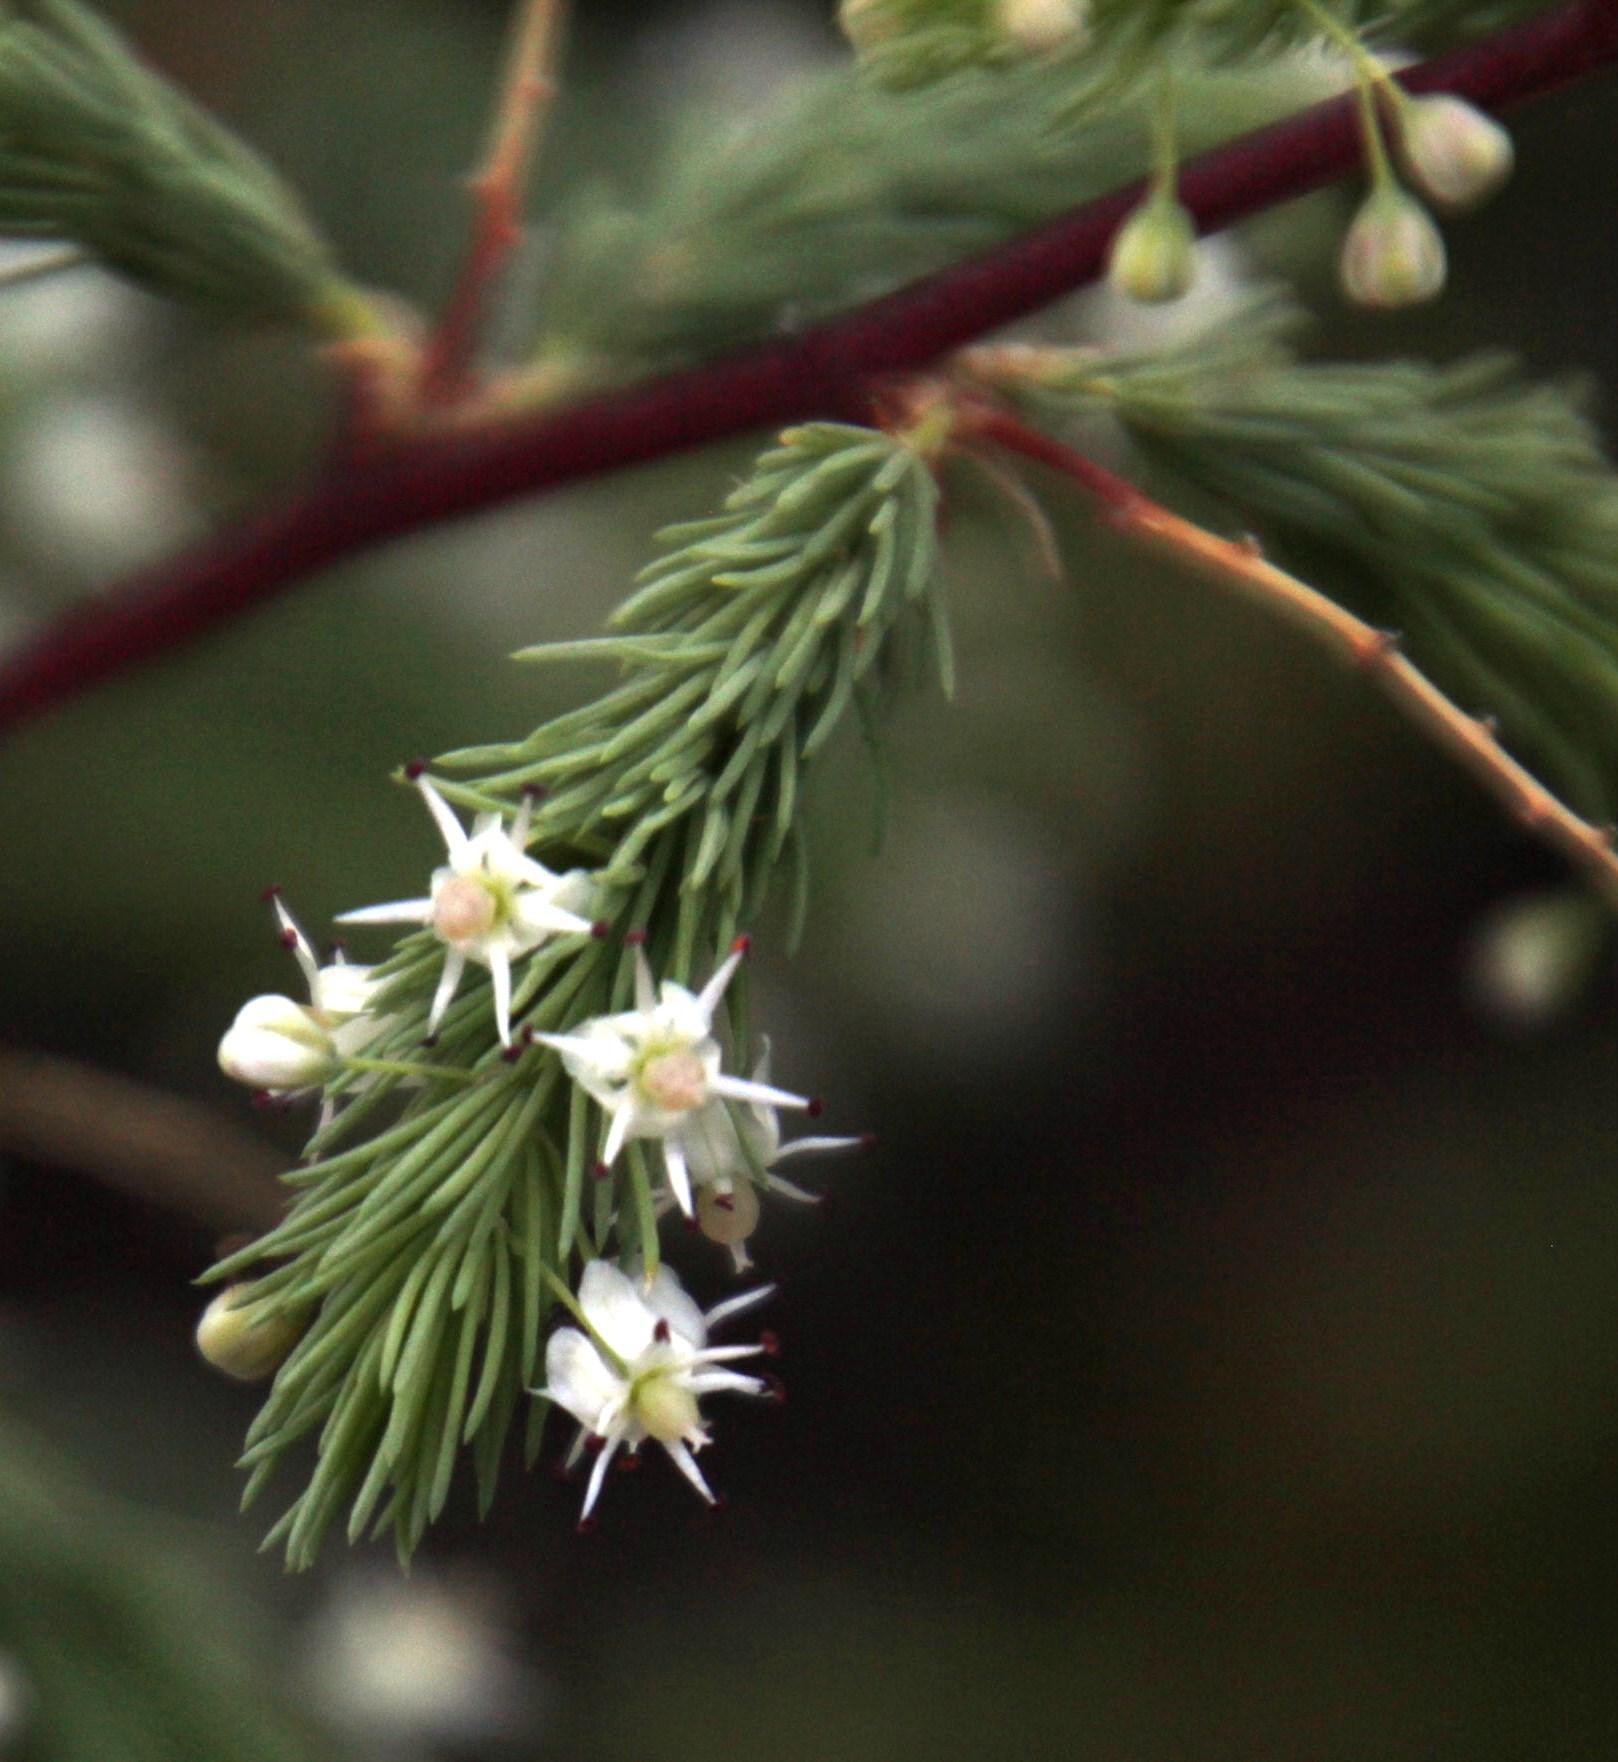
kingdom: Plantae
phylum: Tracheophyta
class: Liliopsida
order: Asparagales
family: Asparagaceae
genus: Asparagus
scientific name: Asparagus rubicundus
